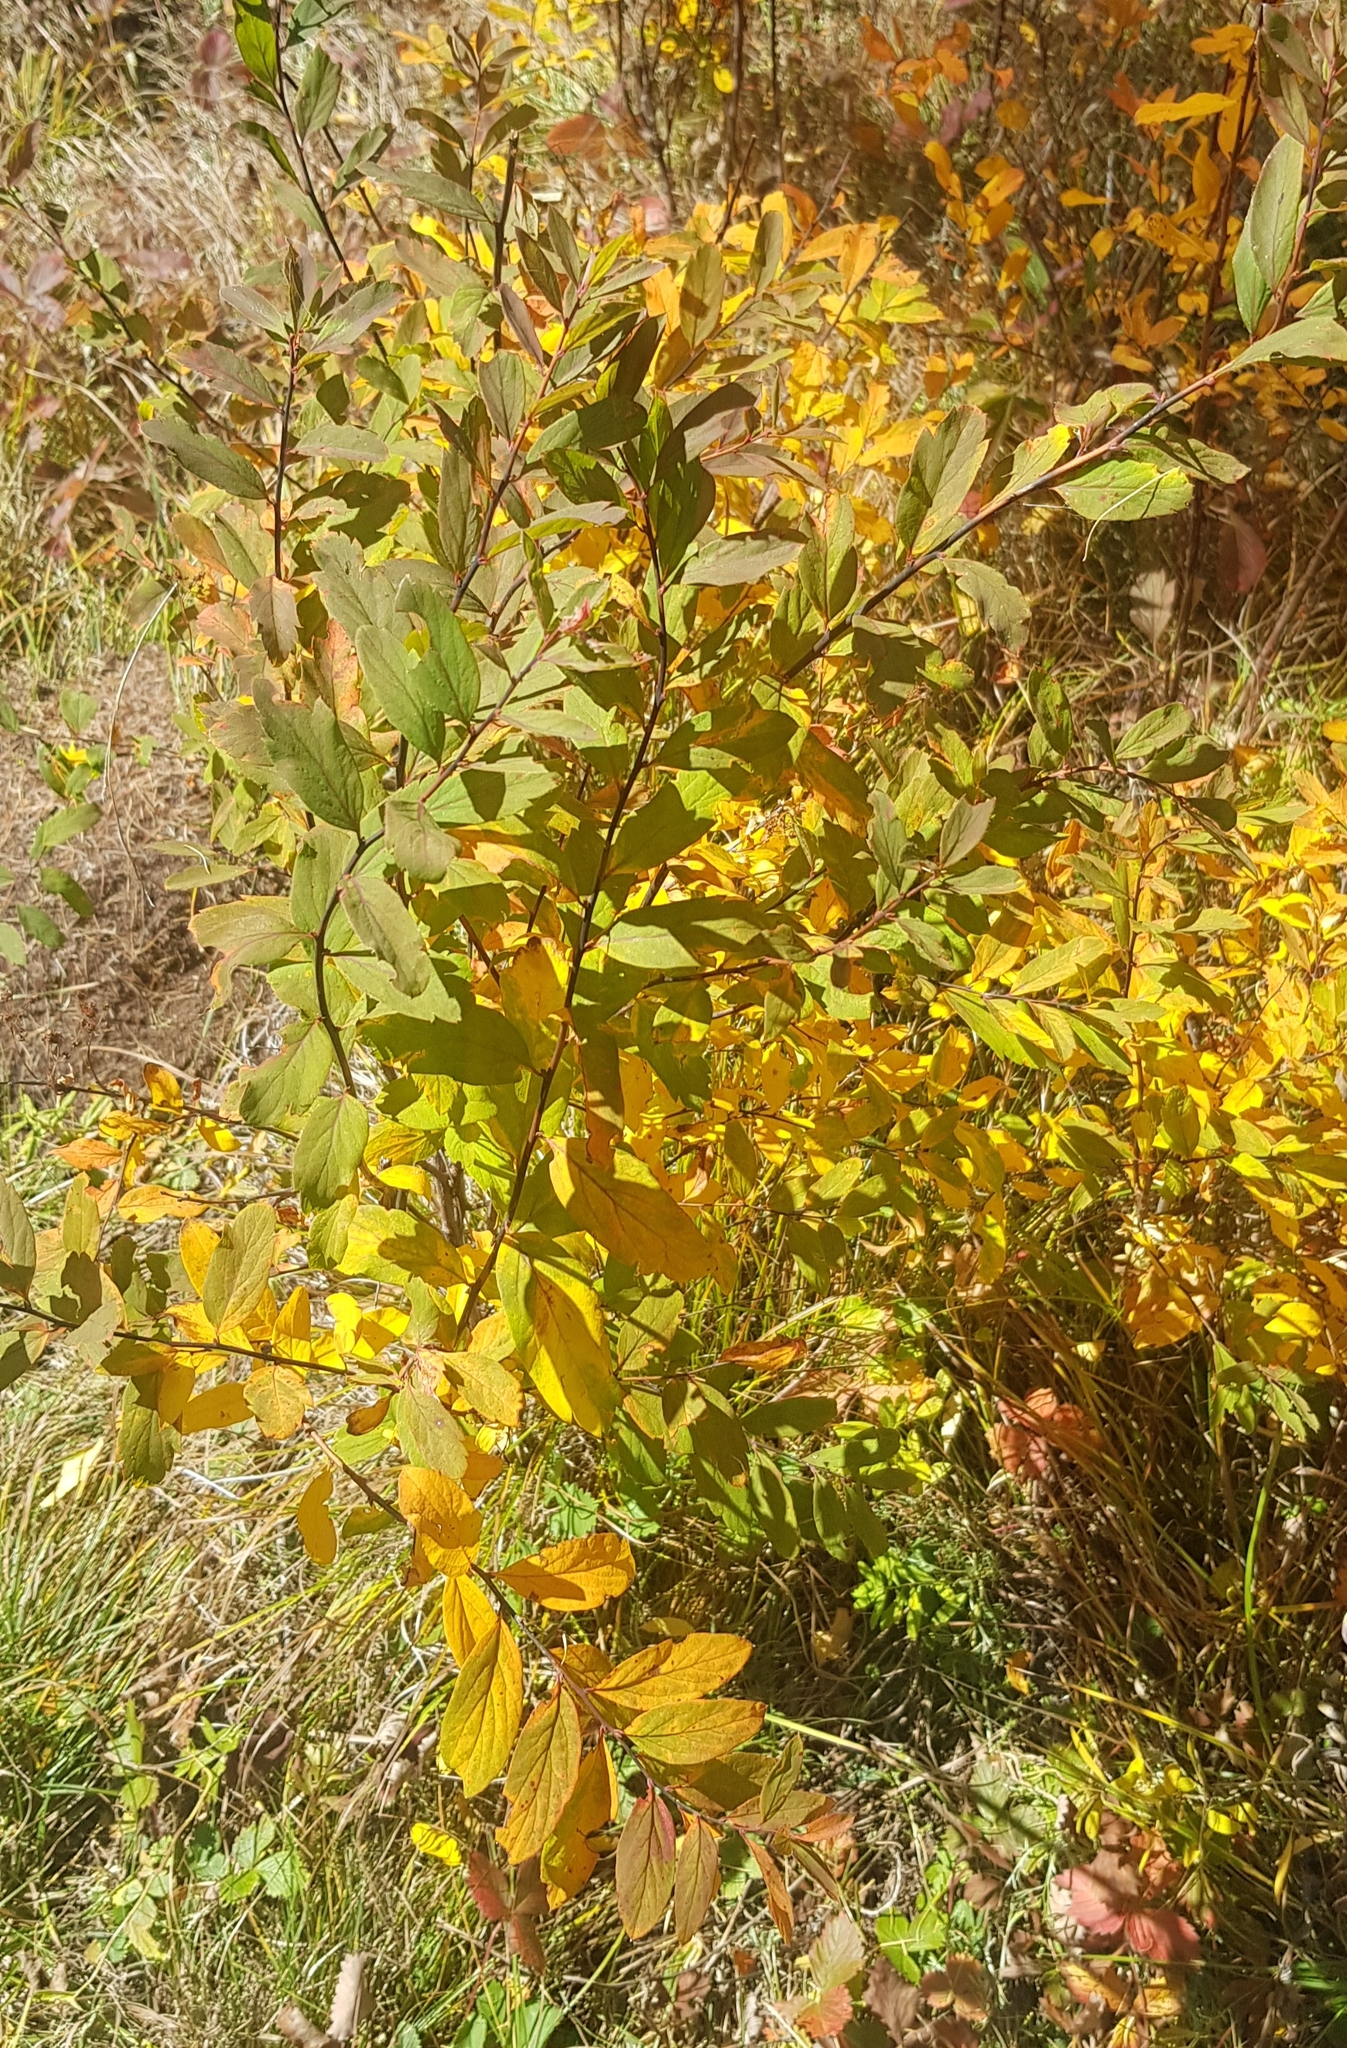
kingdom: Plantae
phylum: Tracheophyta
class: Magnoliopsida
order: Rosales
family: Rosaceae
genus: Spiraea
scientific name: Spiraea salicifolia
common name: Bridewort
